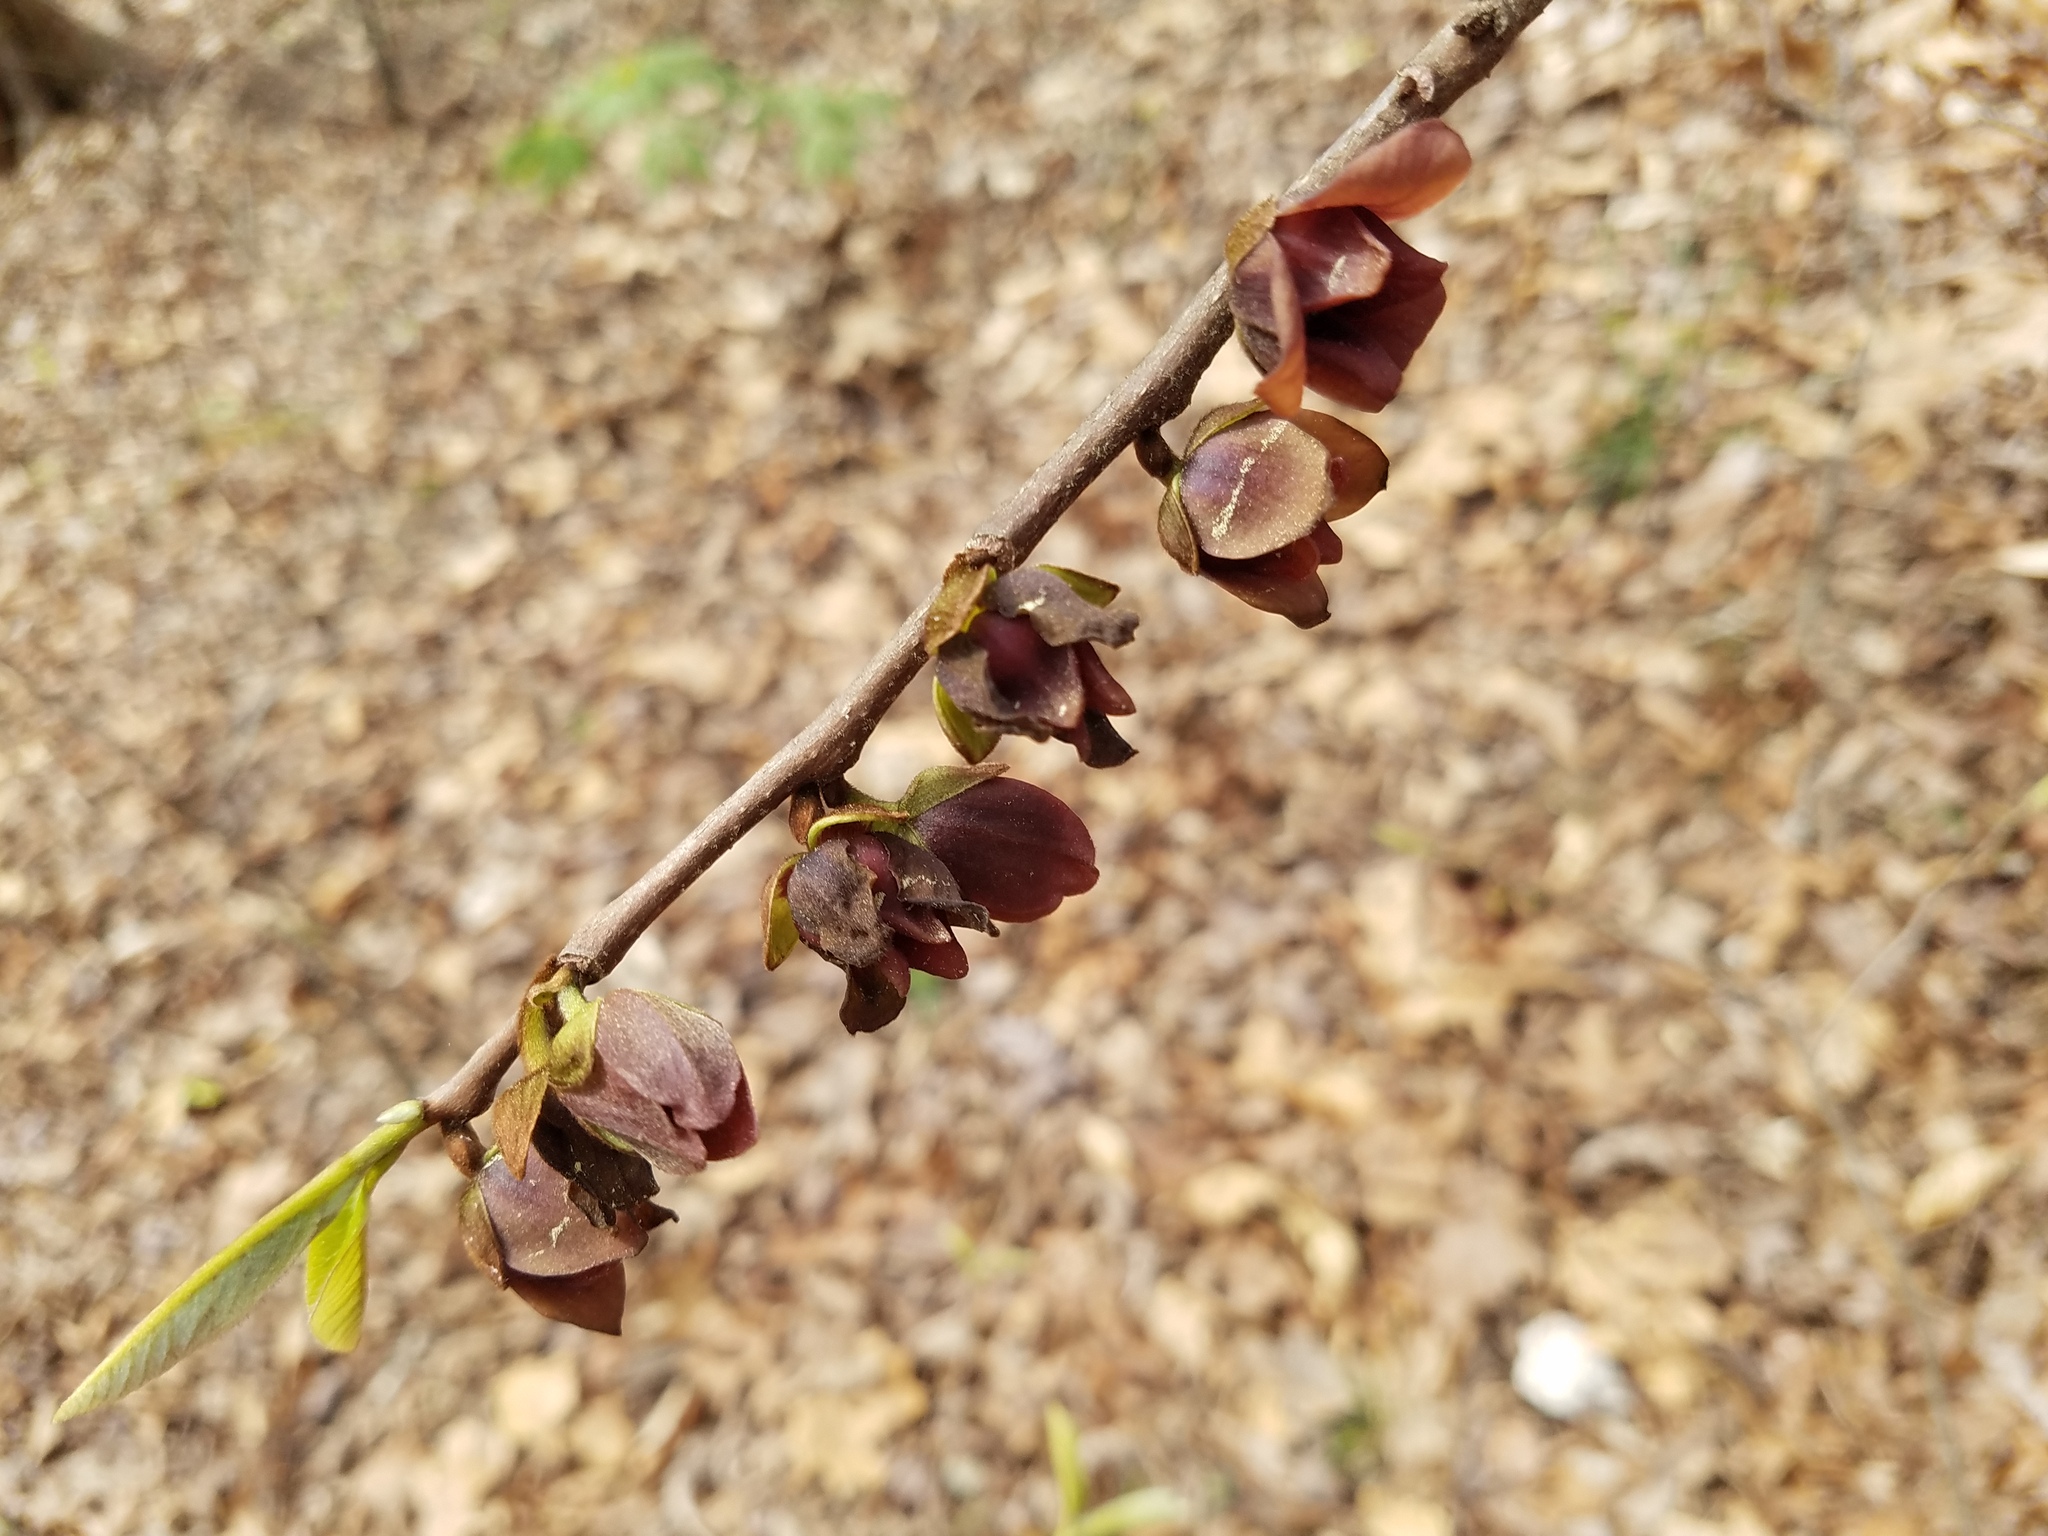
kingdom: Plantae
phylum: Tracheophyta
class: Magnoliopsida
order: Magnoliales
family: Annonaceae
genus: Asimina
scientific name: Asimina triloba
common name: Dog-banana
